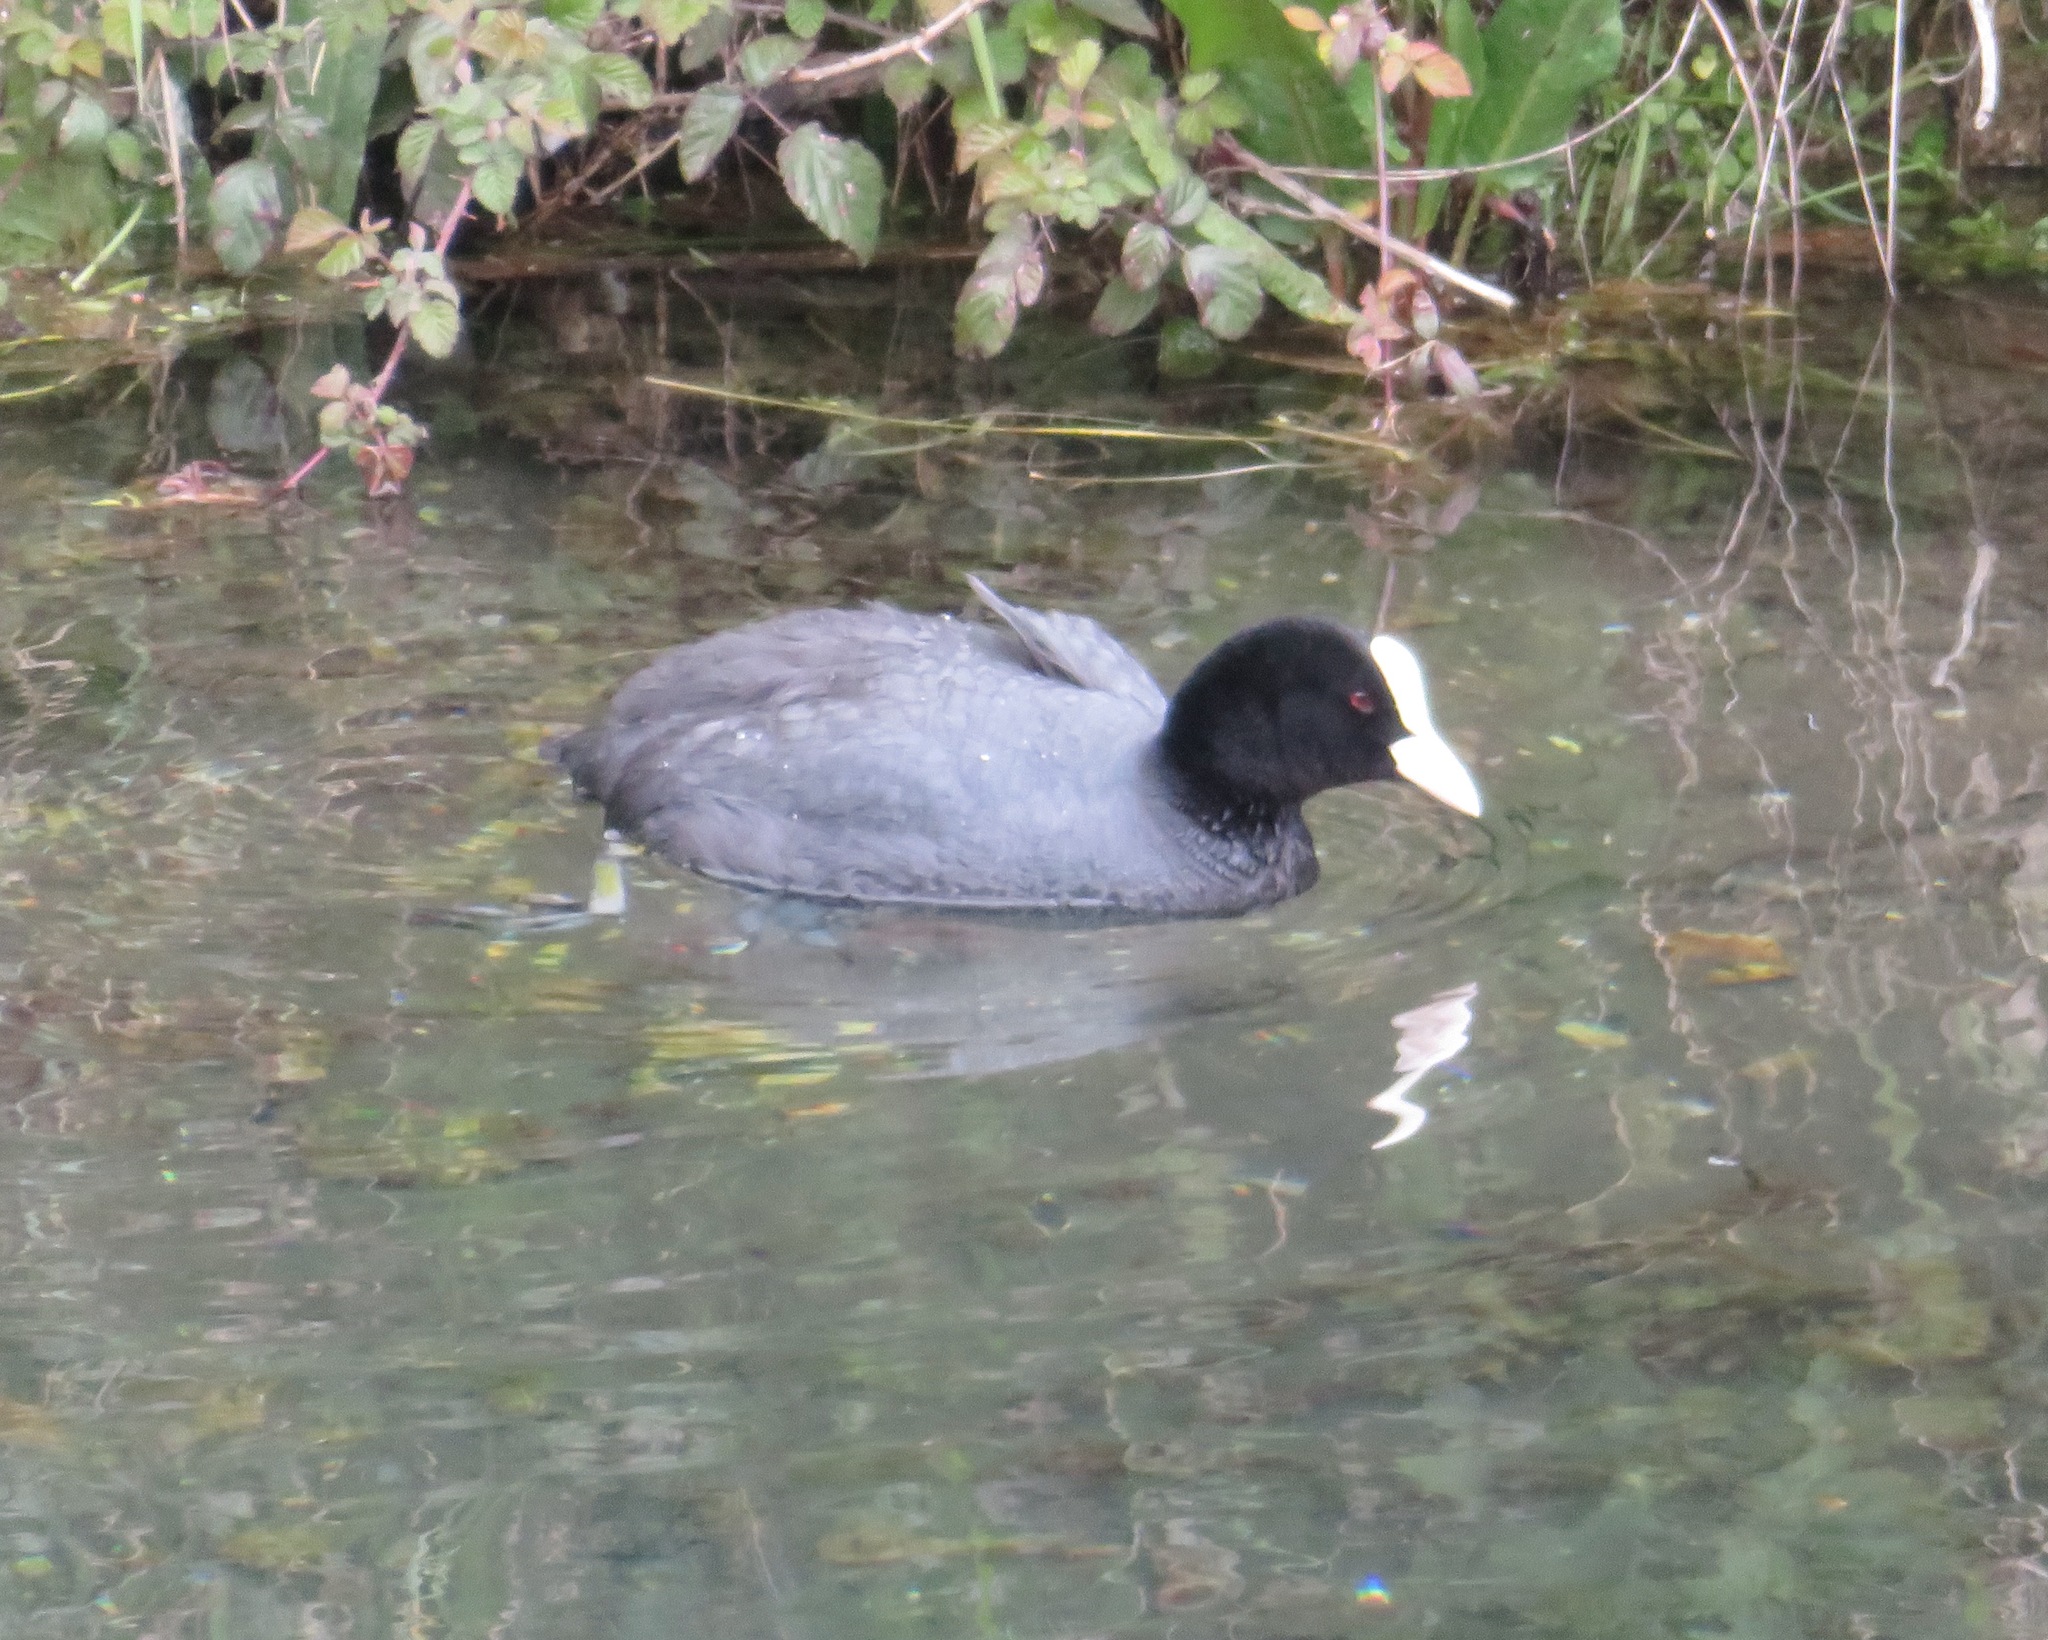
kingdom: Animalia
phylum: Chordata
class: Aves
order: Gruiformes
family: Rallidae
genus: Fulica
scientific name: Fulica atra
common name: Eurasian coot
